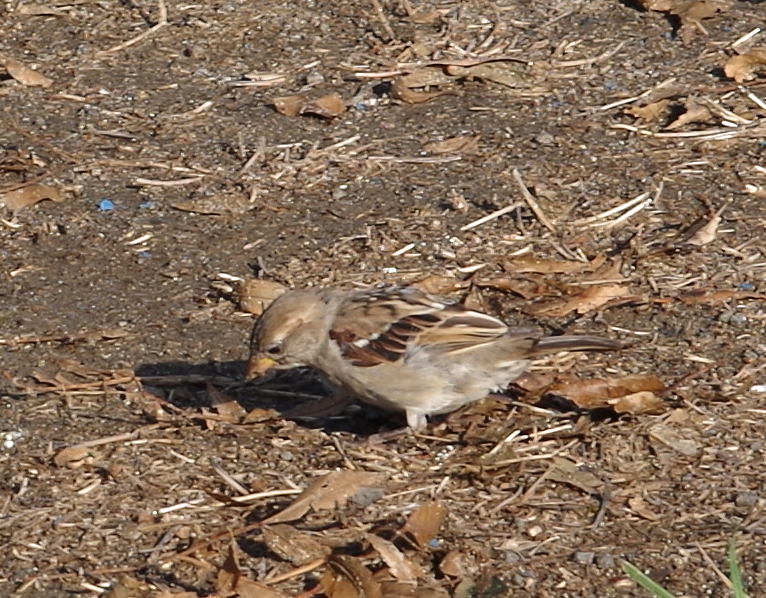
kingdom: Animalia
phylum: Chordata
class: Aves
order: Passeriformes
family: Passeridae
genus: Passer
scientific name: Passer domesticus
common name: House sparrow
